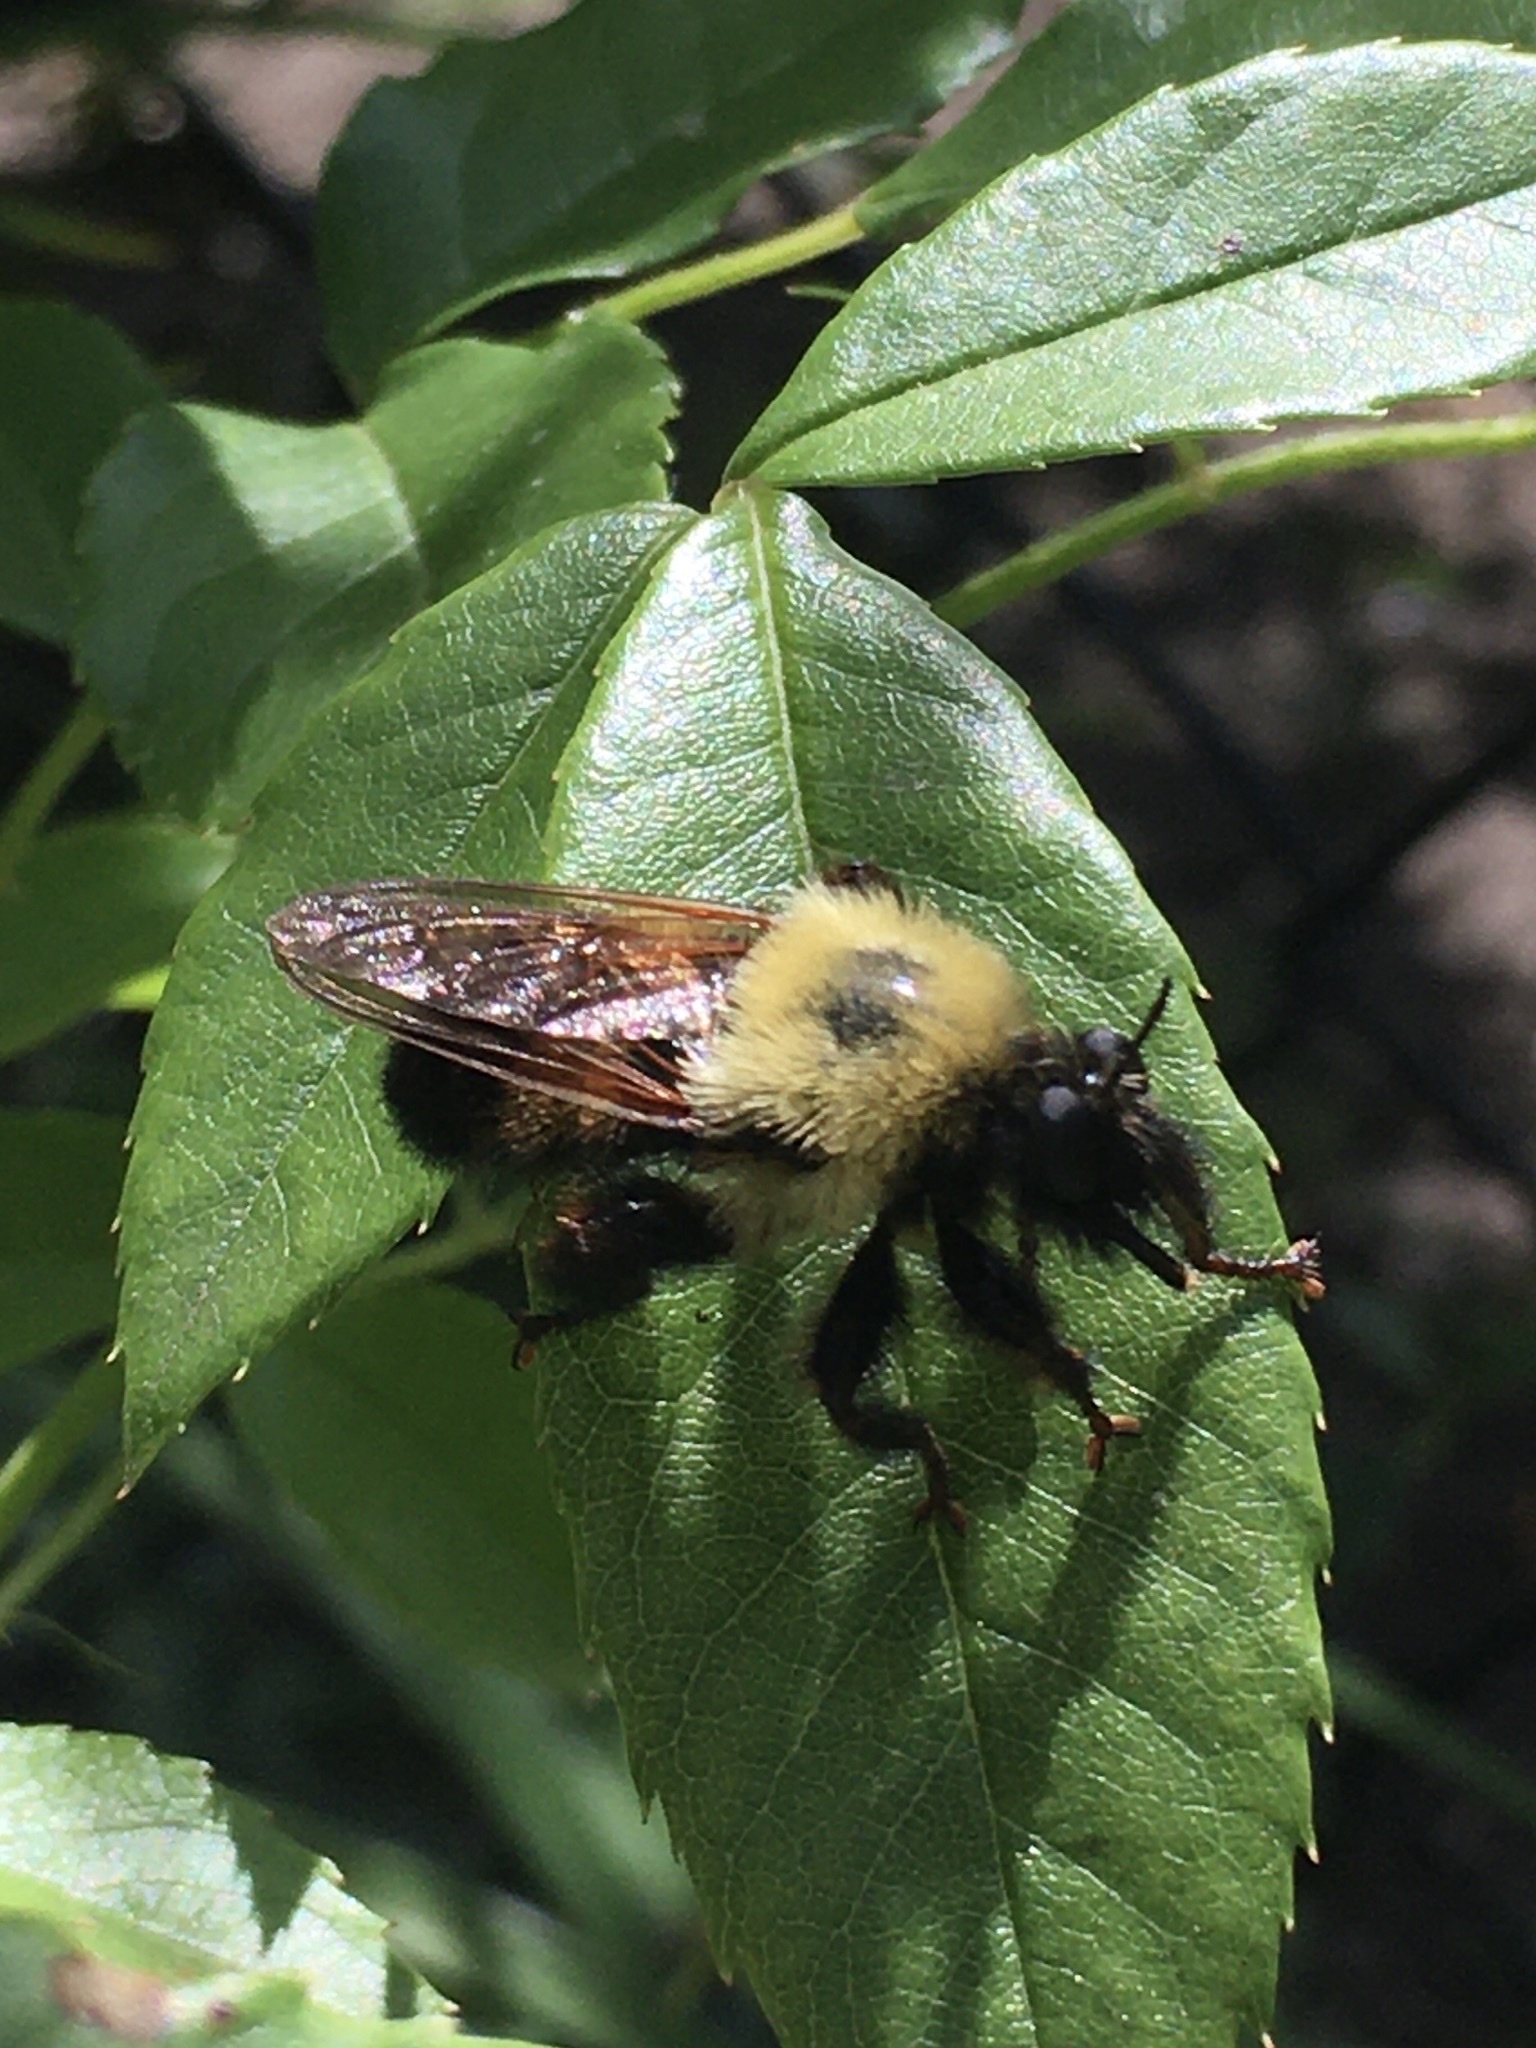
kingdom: Animalia
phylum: Arthropoda
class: Insecta
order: Diptera
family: Asilidae
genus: Laphria
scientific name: Laphria thoracica
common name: Bumble bee mimic robber fly
